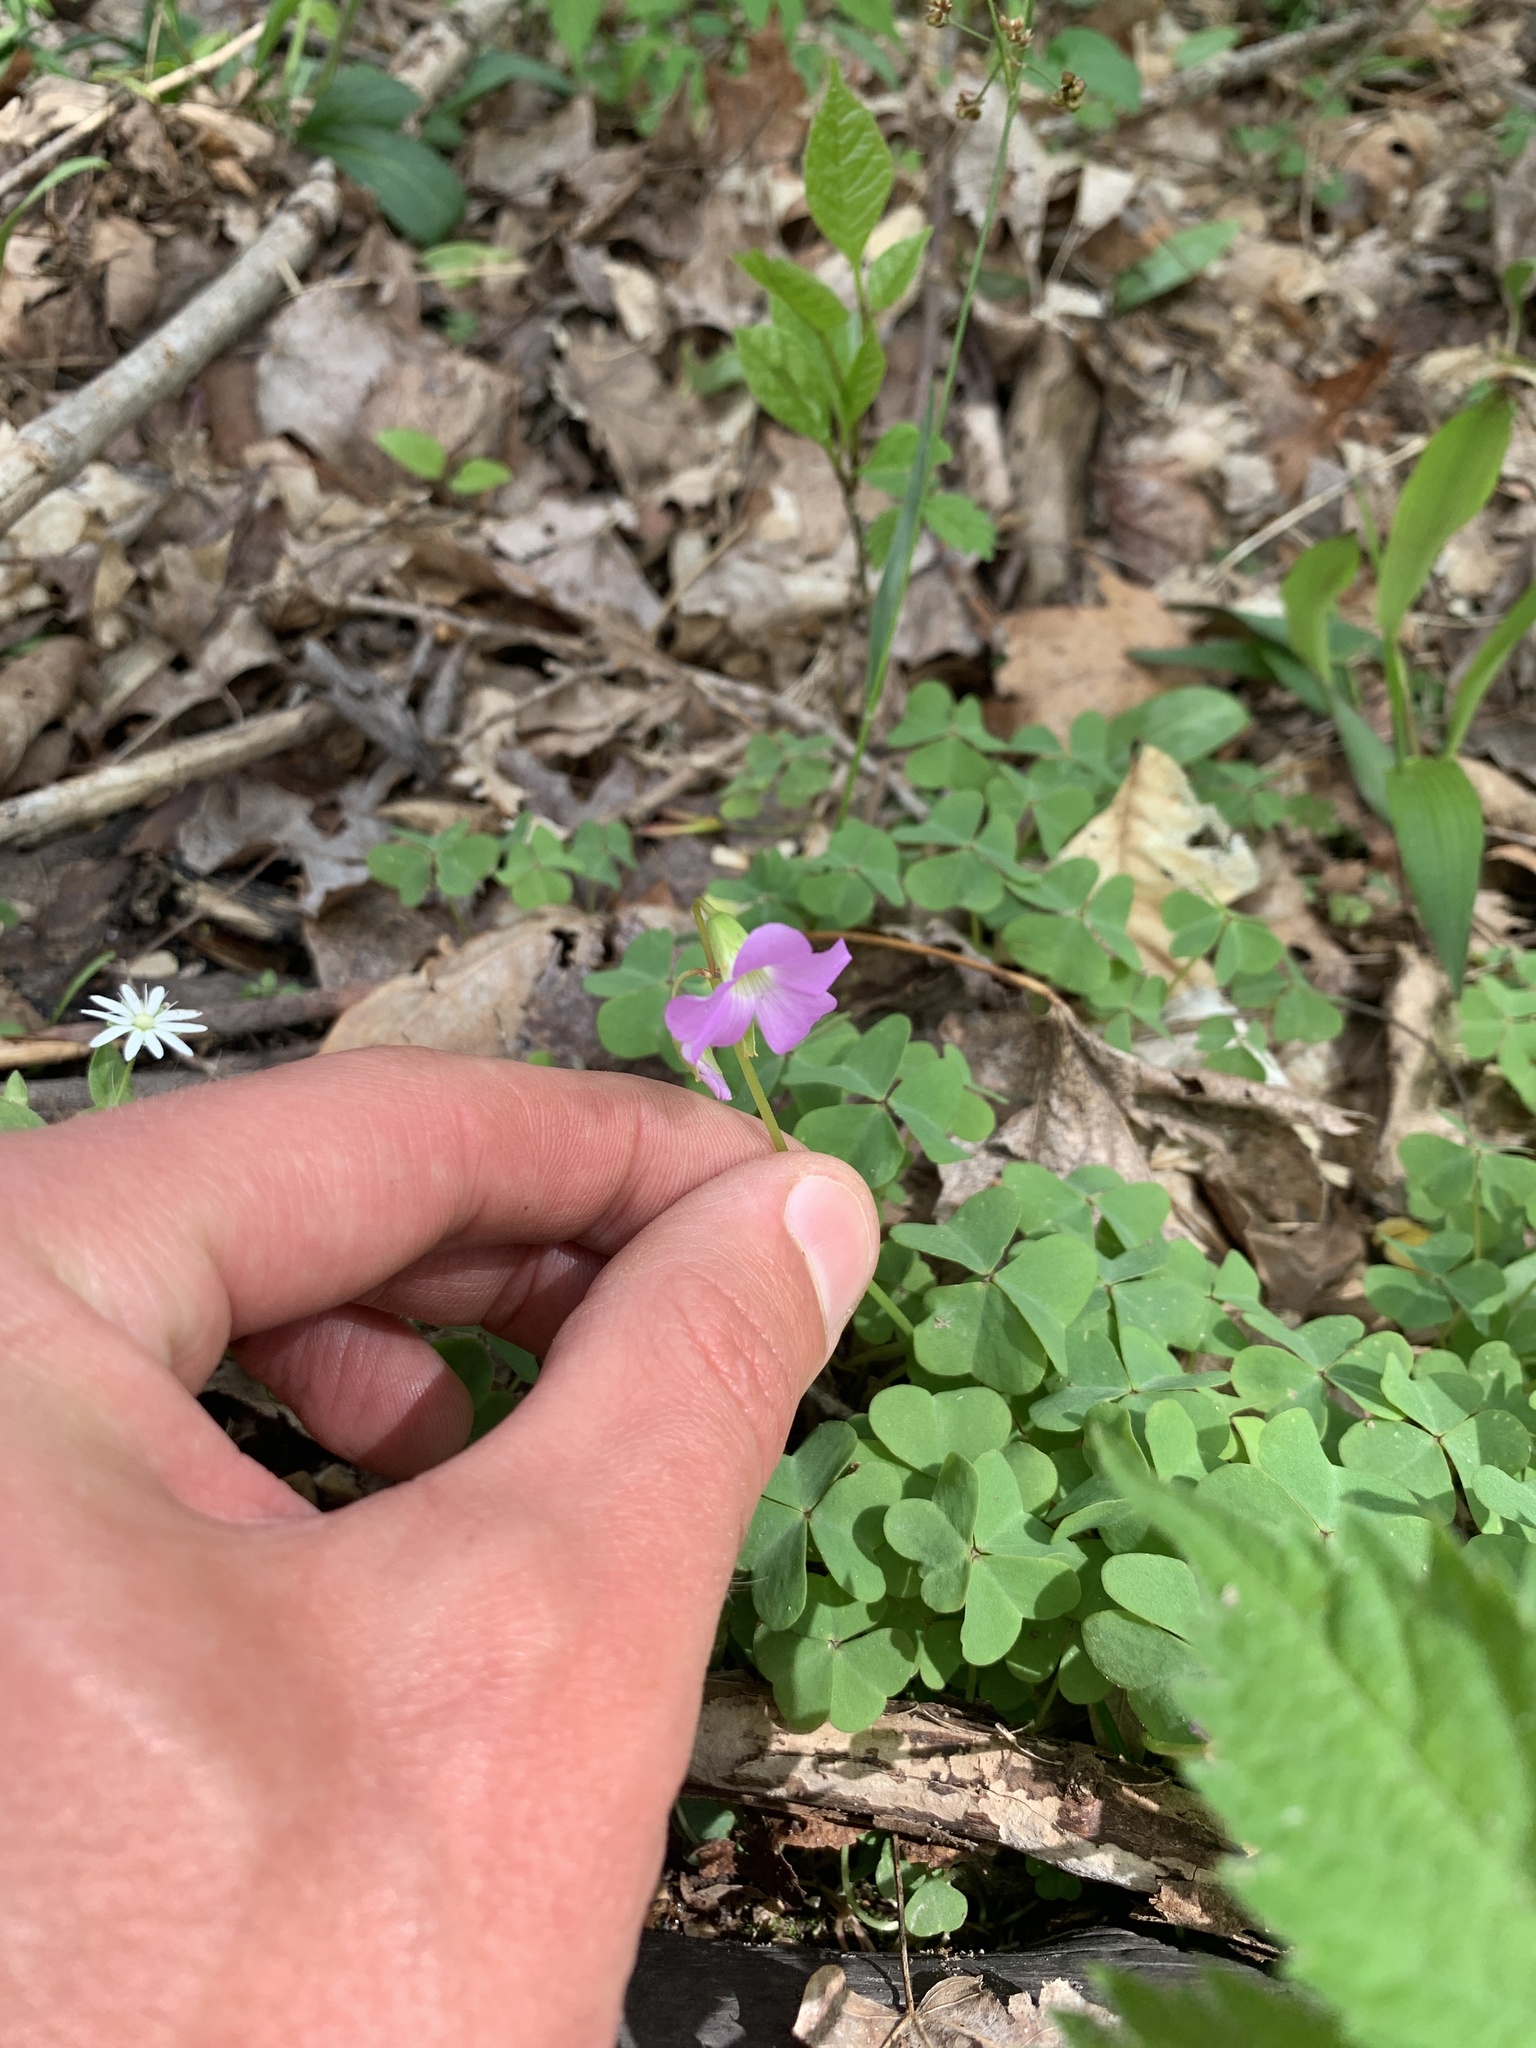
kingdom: Plantae
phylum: Tracheophyta
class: Magnoliopsida
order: Oxalidales
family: Oxalidaceae
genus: Oxalis
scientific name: Oxalis violacea
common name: Violet wood-sorrel
